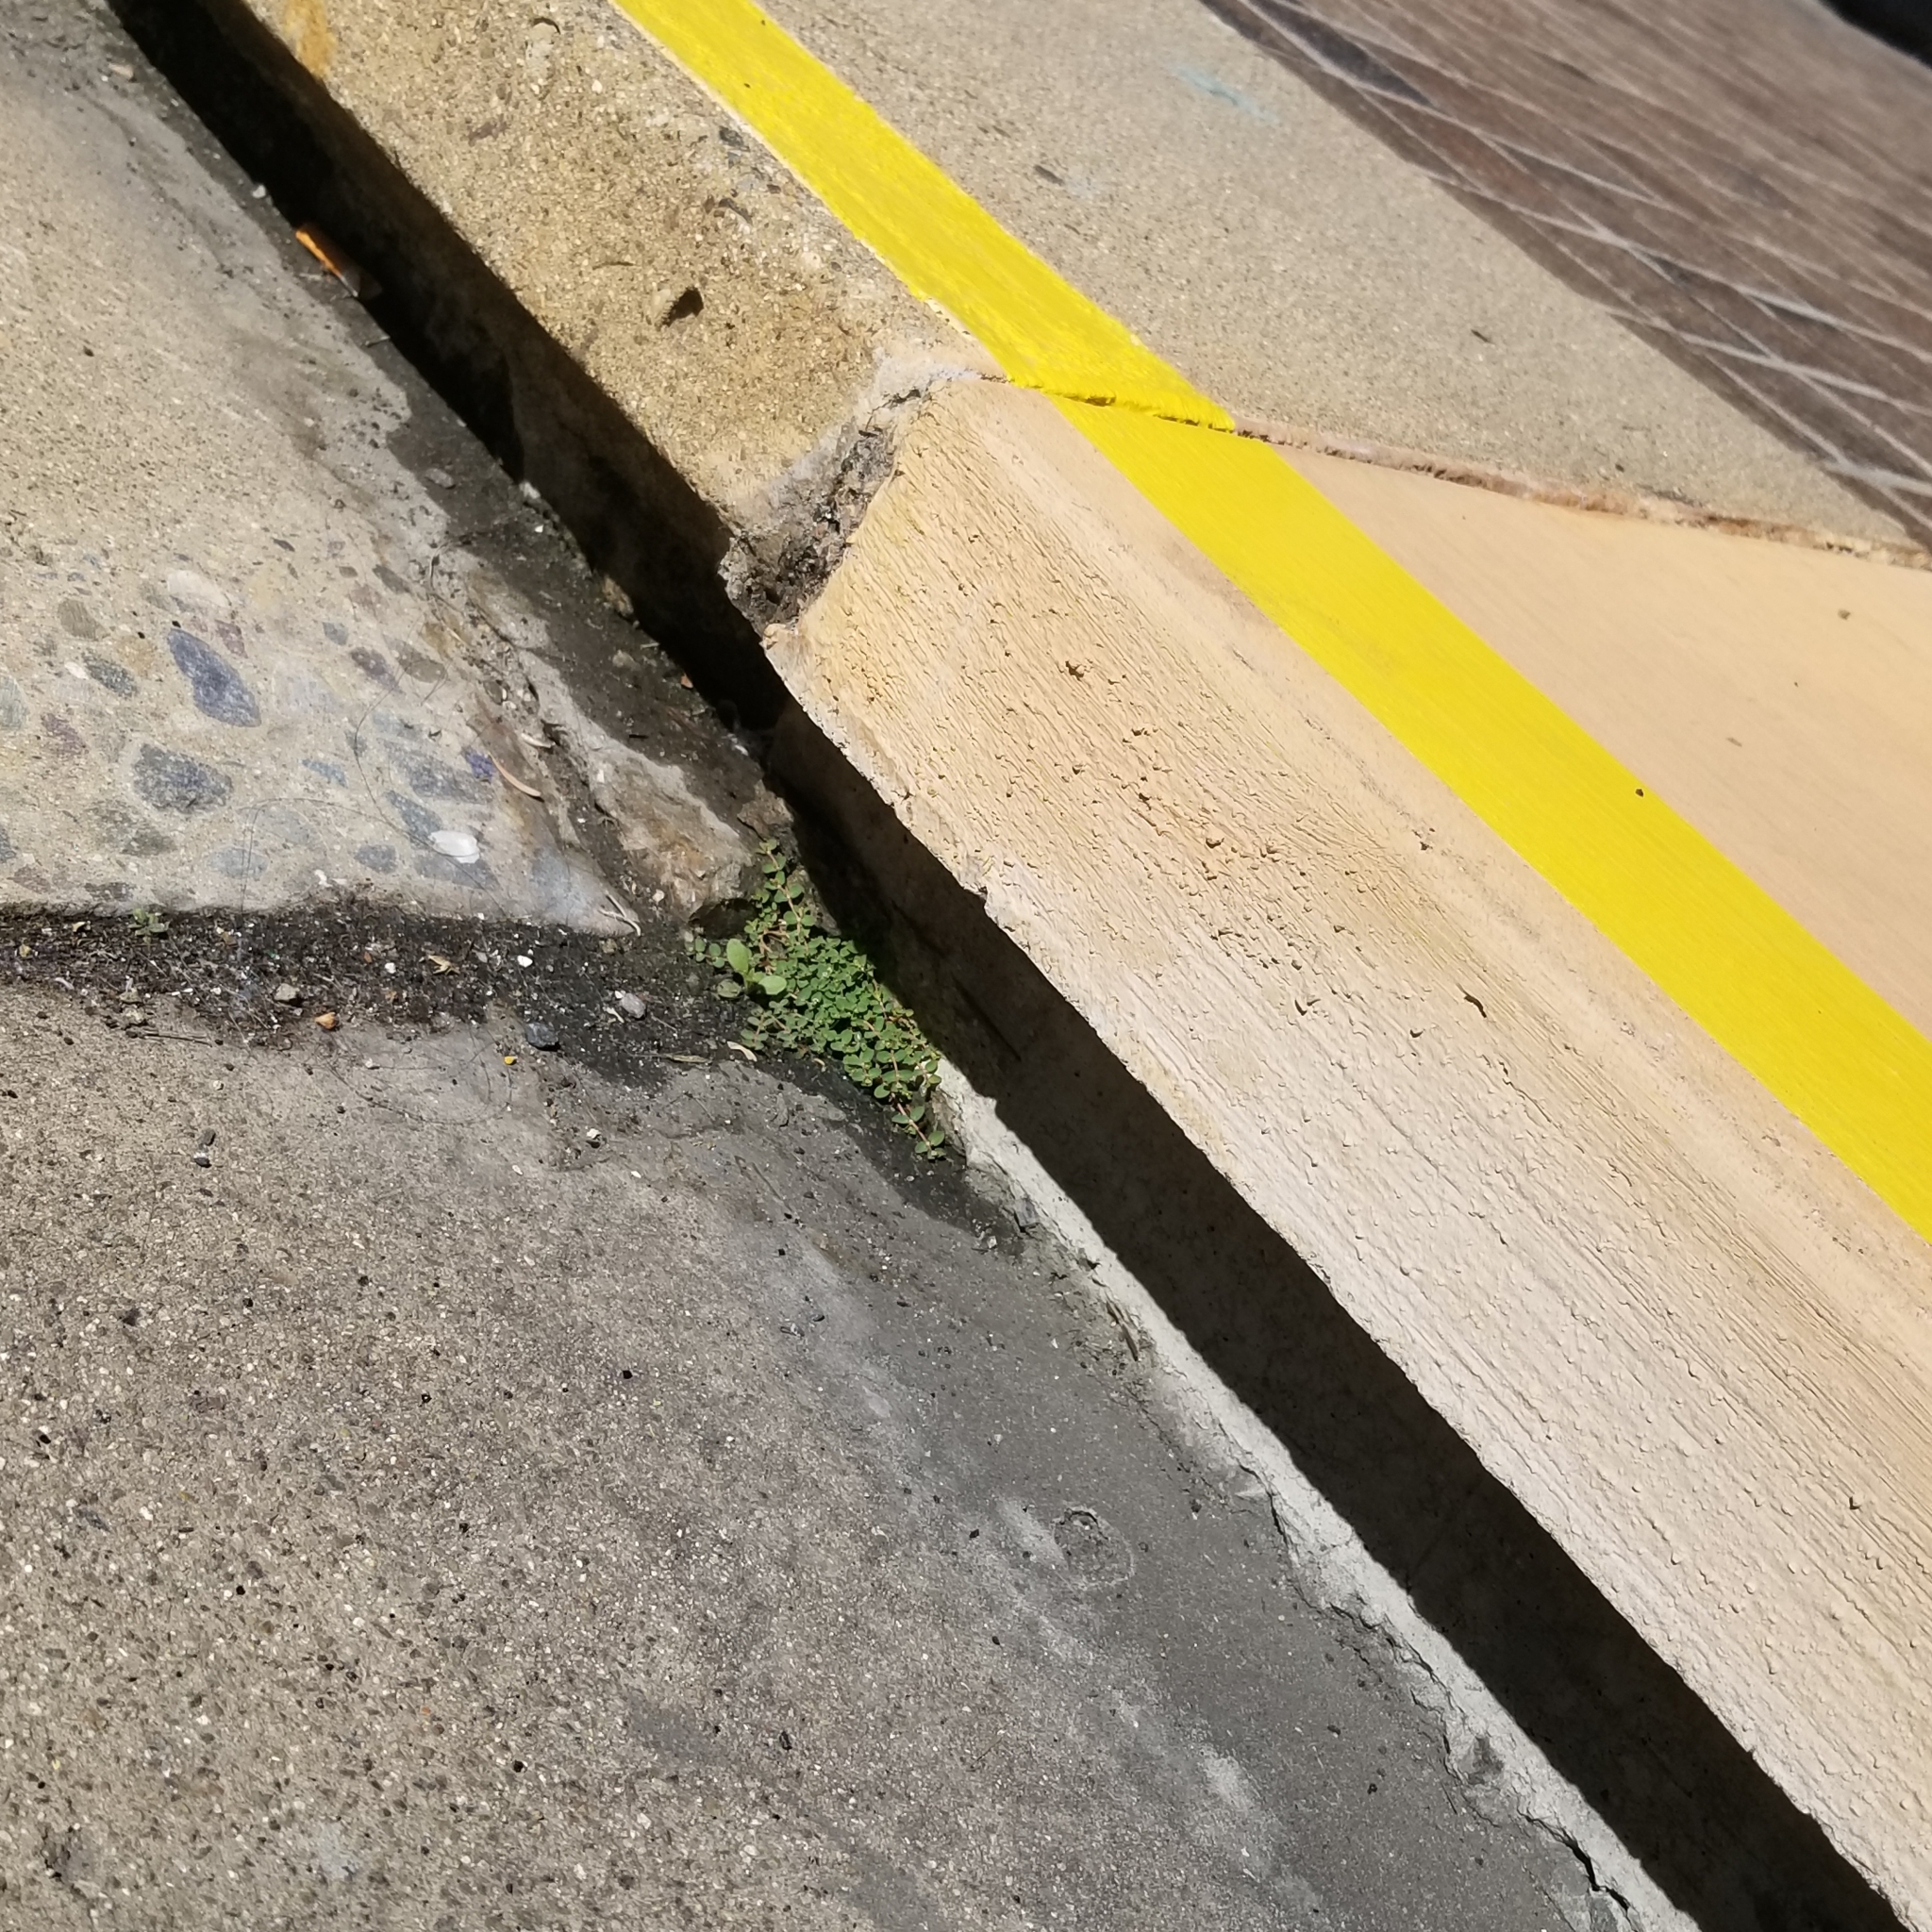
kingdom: Plantae
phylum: Tracheophyta
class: Magnoliopsida
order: Malpighiales
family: Euphorbiaceae
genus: Euphorbia
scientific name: Euphorbia serpens
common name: Matted sandmat
